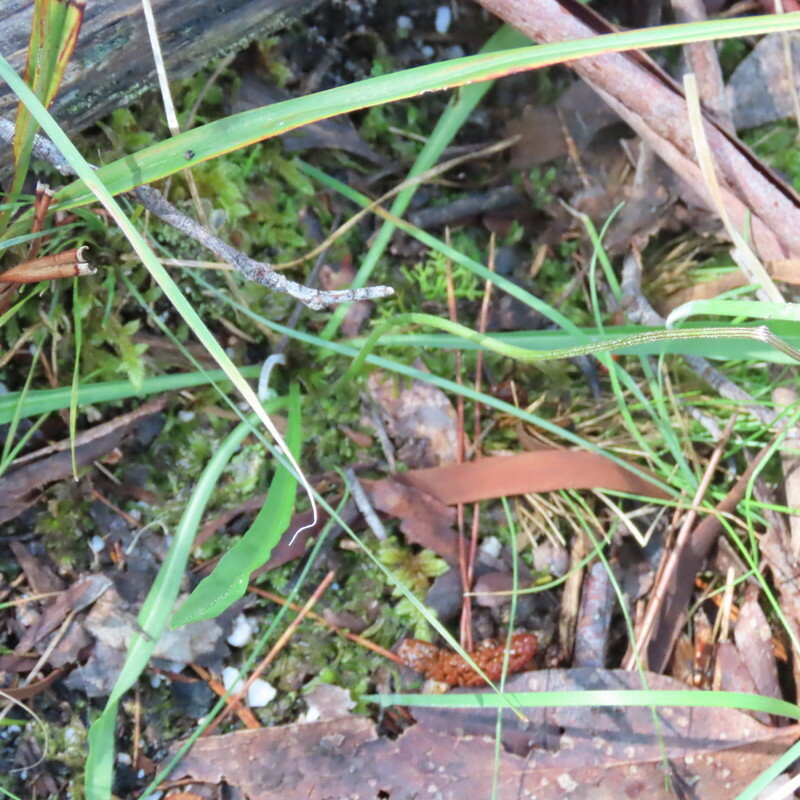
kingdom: Plantae
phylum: Tracheophyta
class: Magnoliopsida
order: Asterales
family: Asteraceae
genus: Microseris
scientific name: Microseris lanceolata
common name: Yam daisy
